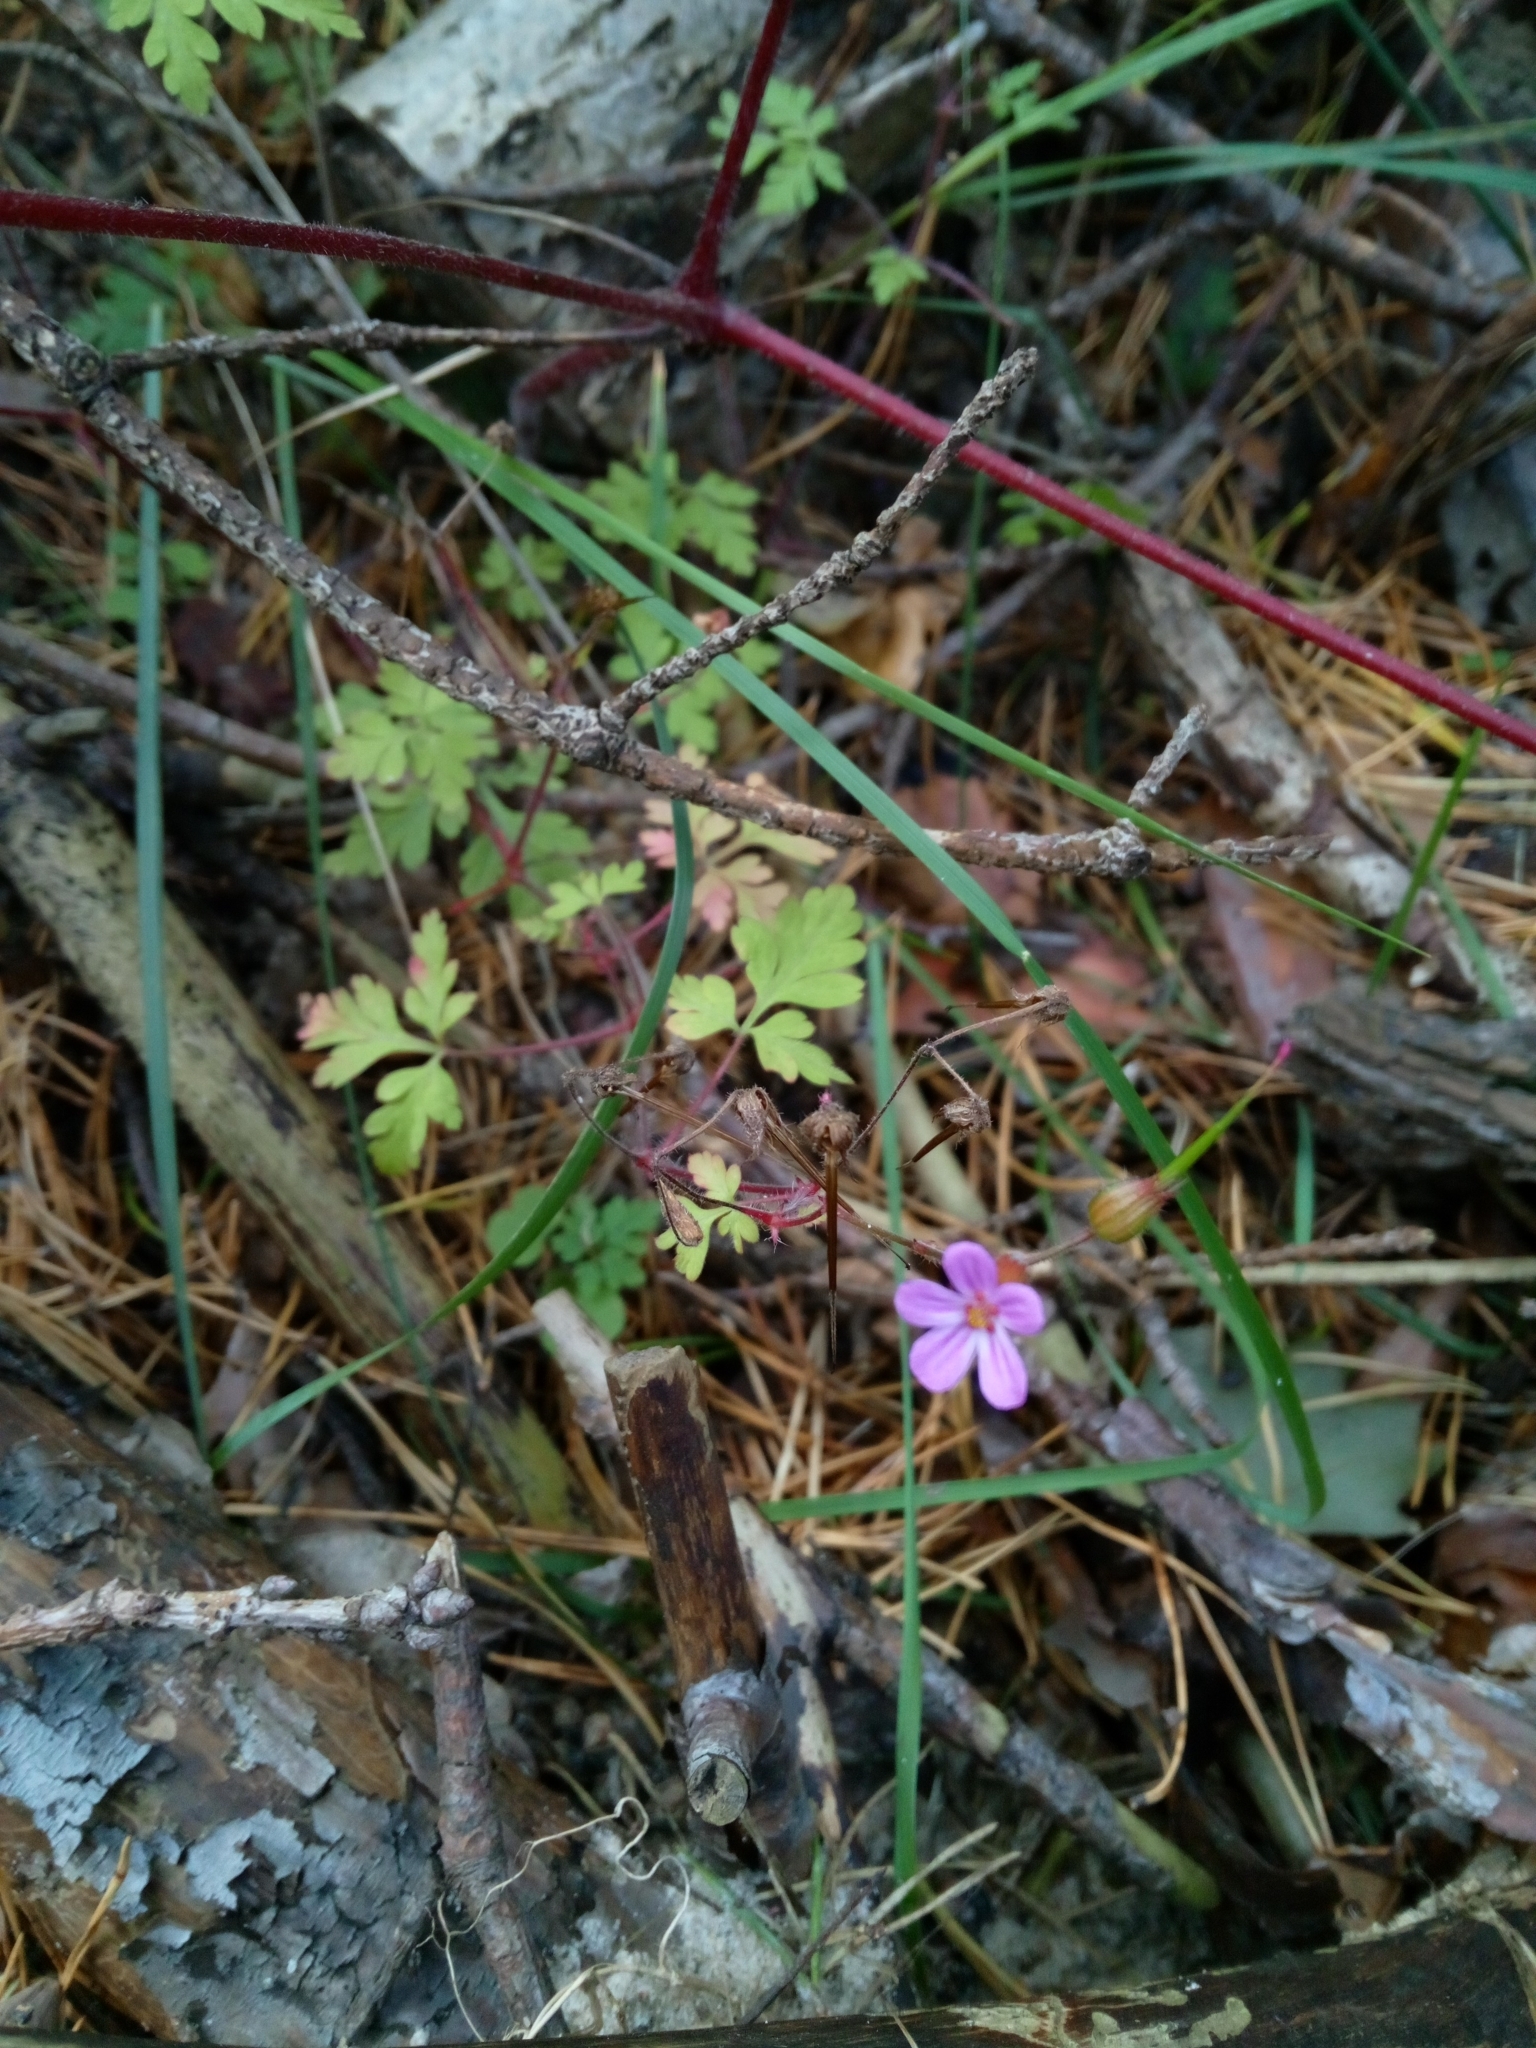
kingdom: Plantae
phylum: Tracheophyta
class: Magnoliopsida
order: Geraniales
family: Geraniaceae
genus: Geranium
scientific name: Geranium robertianum
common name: Herb-robert
